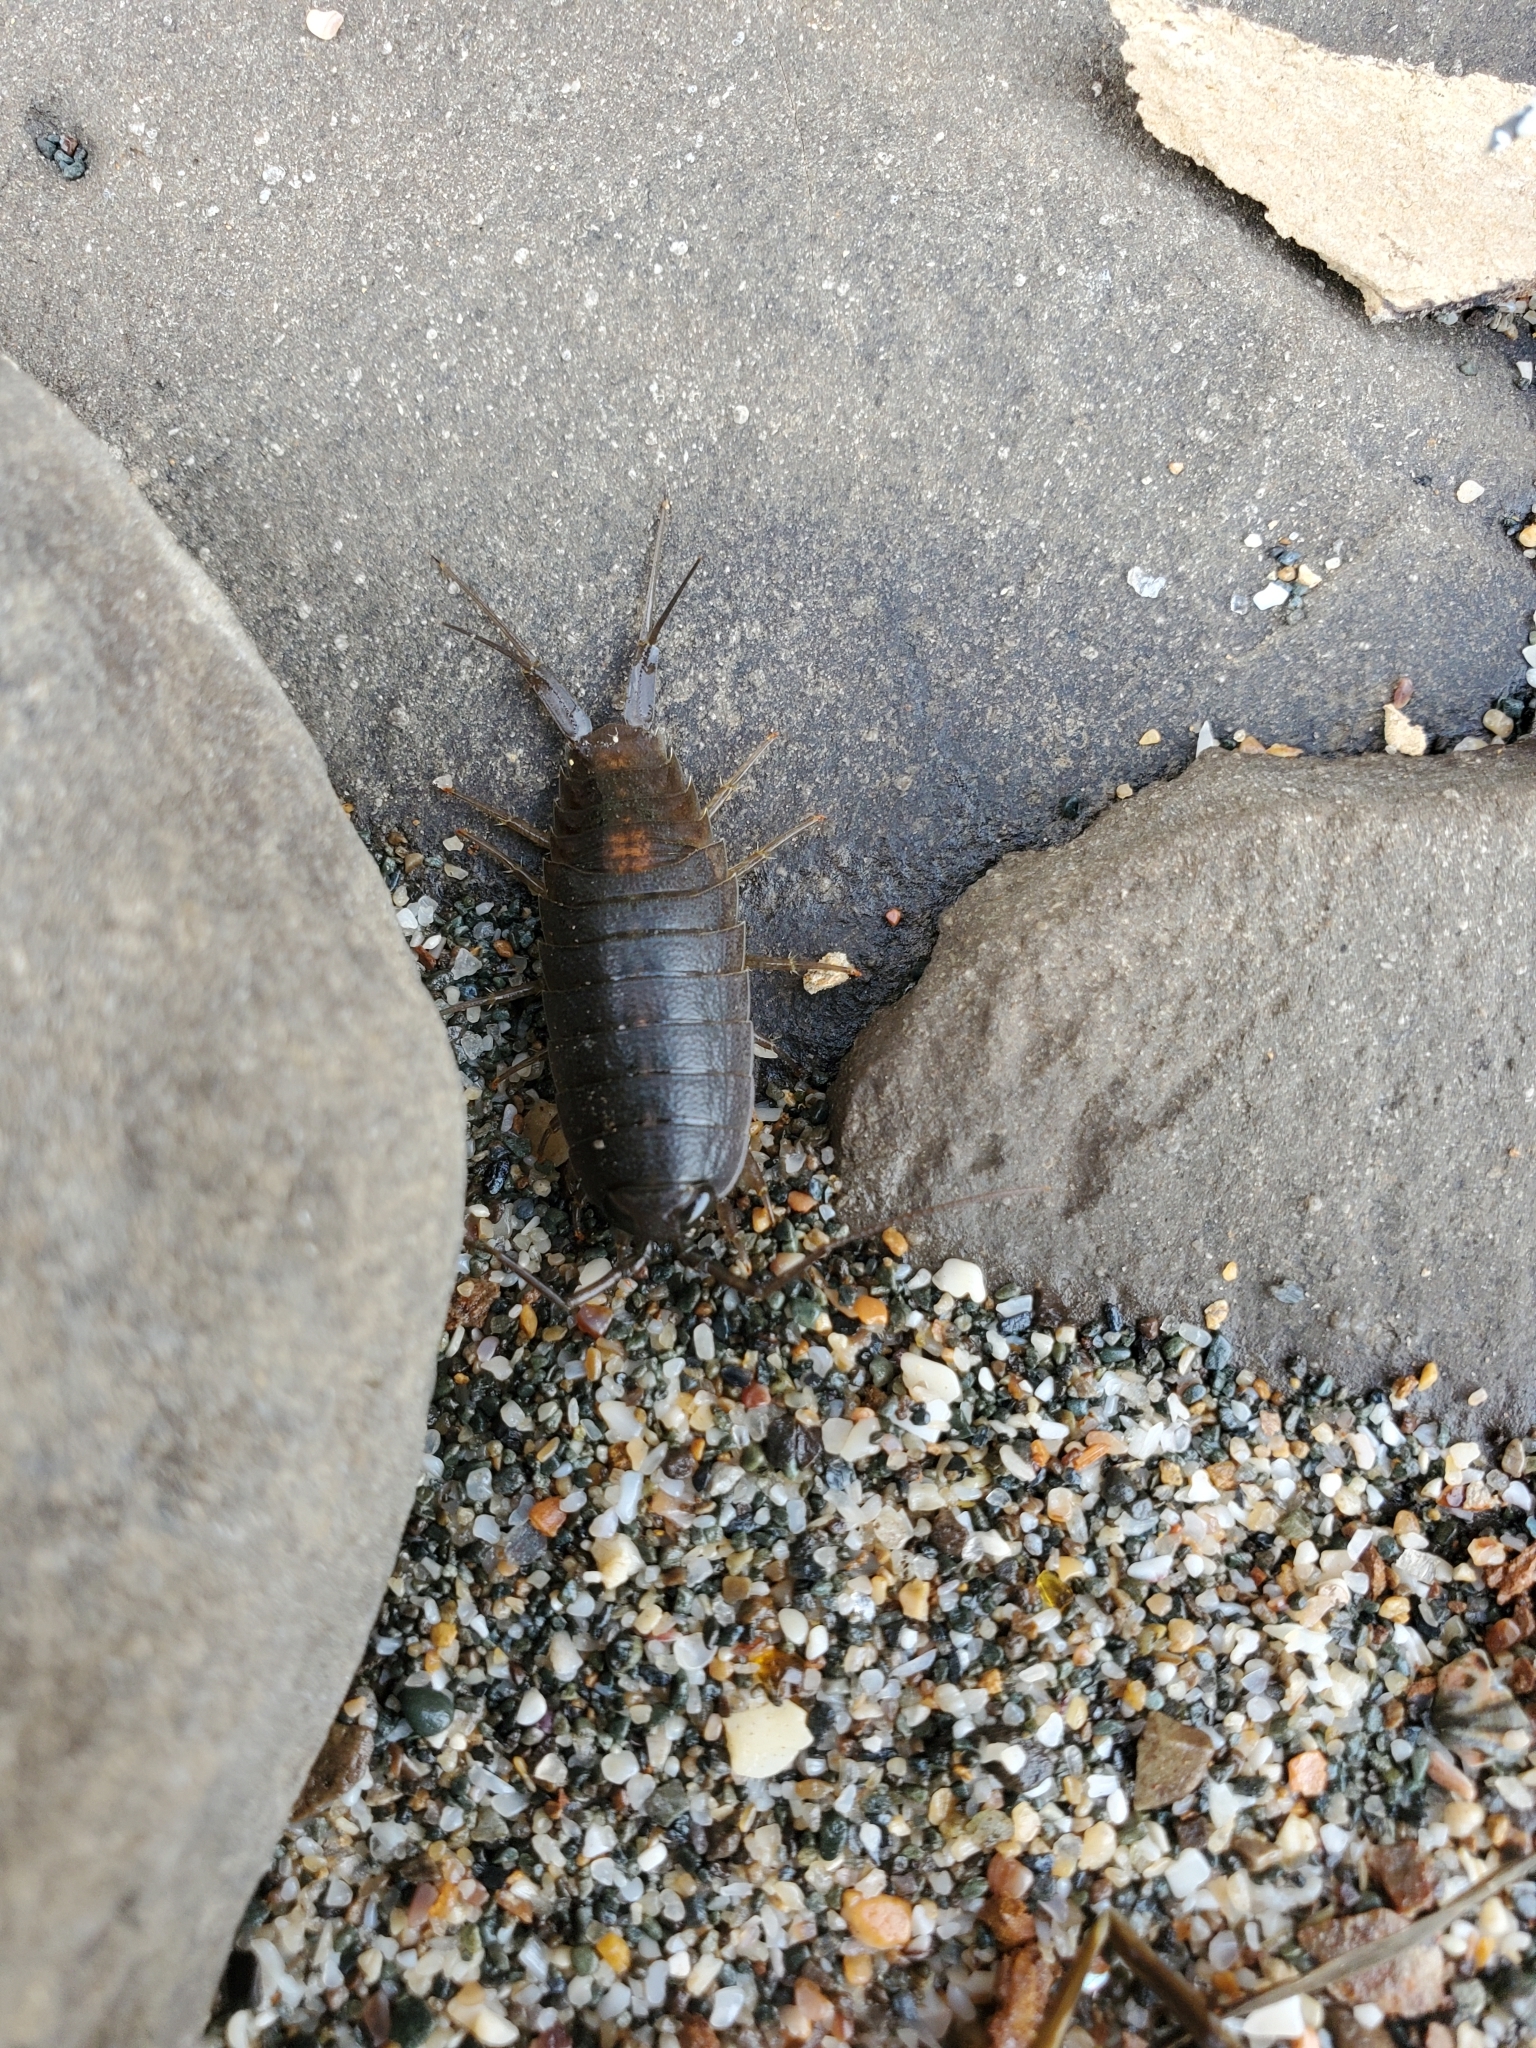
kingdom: Animalia
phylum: Arthropoda
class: Malacostraca
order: Isopoda
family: Ligiidae
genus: Ligia
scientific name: Ligia occidentalis
